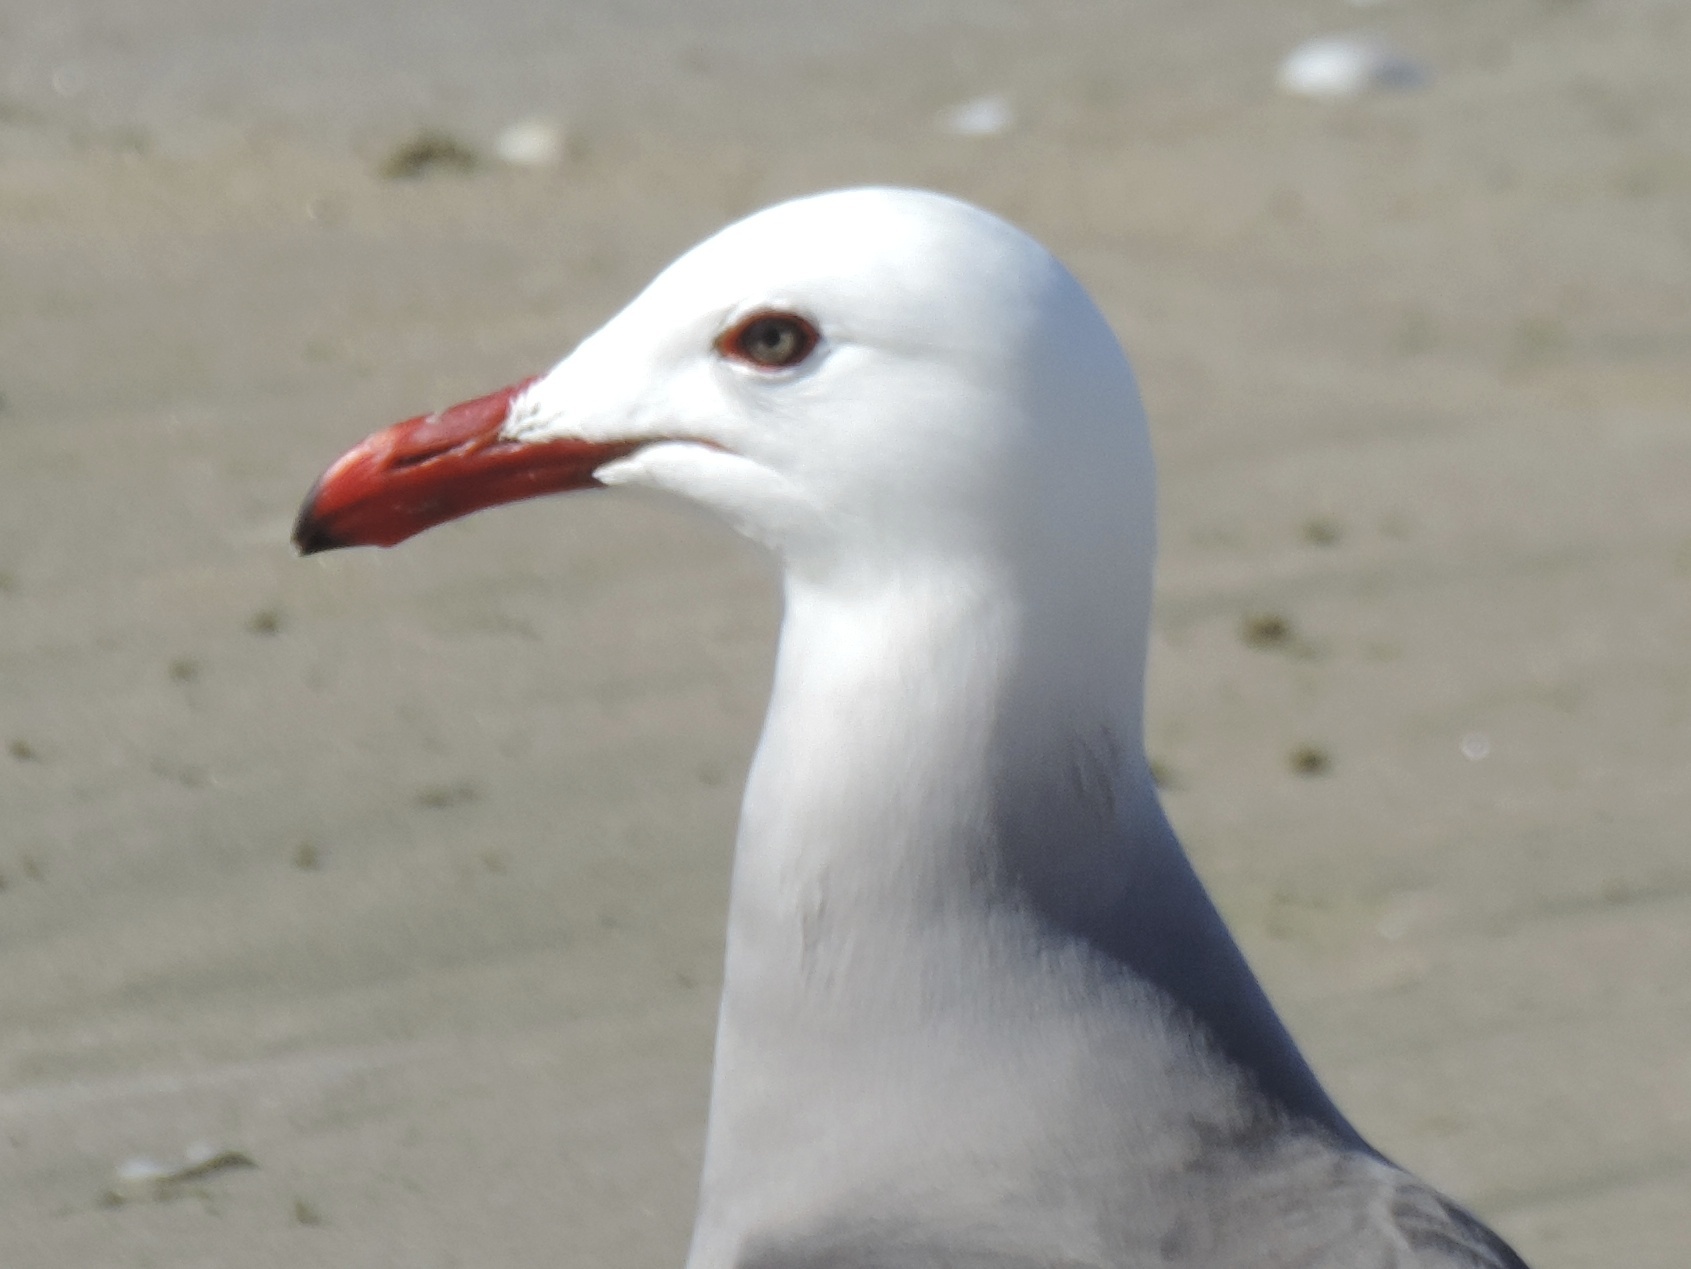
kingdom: Animalia
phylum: Chordata
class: Aves
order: Charadriiformes
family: Laridae
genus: Larus
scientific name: Larus heermanni
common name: Heermann's gull
